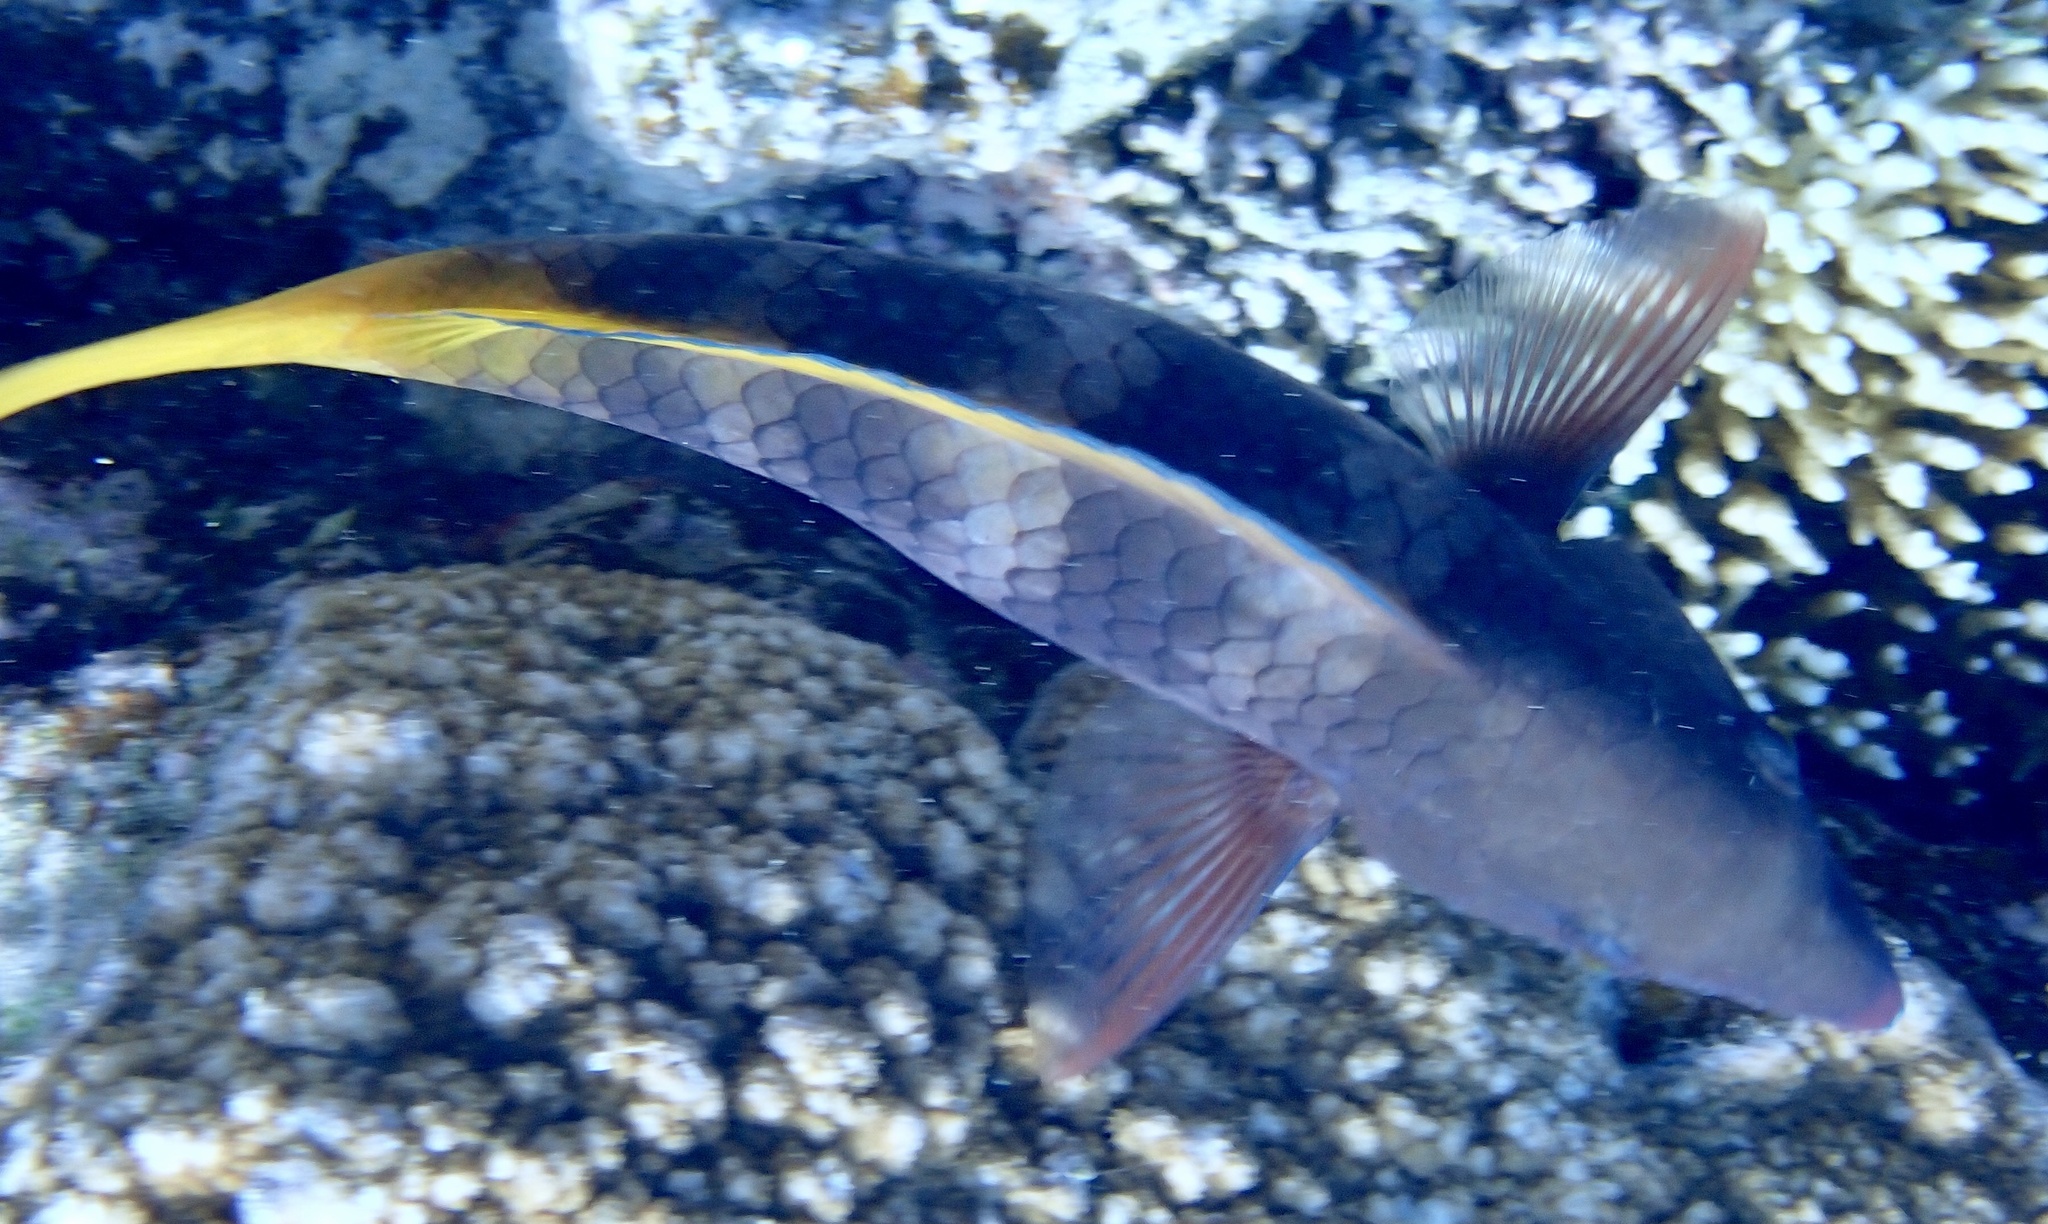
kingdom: Animalia
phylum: Chordata
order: Perciformes
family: Scaridae
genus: Scarus
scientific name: Scarus ferrugineus
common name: Rusty parrotfish
